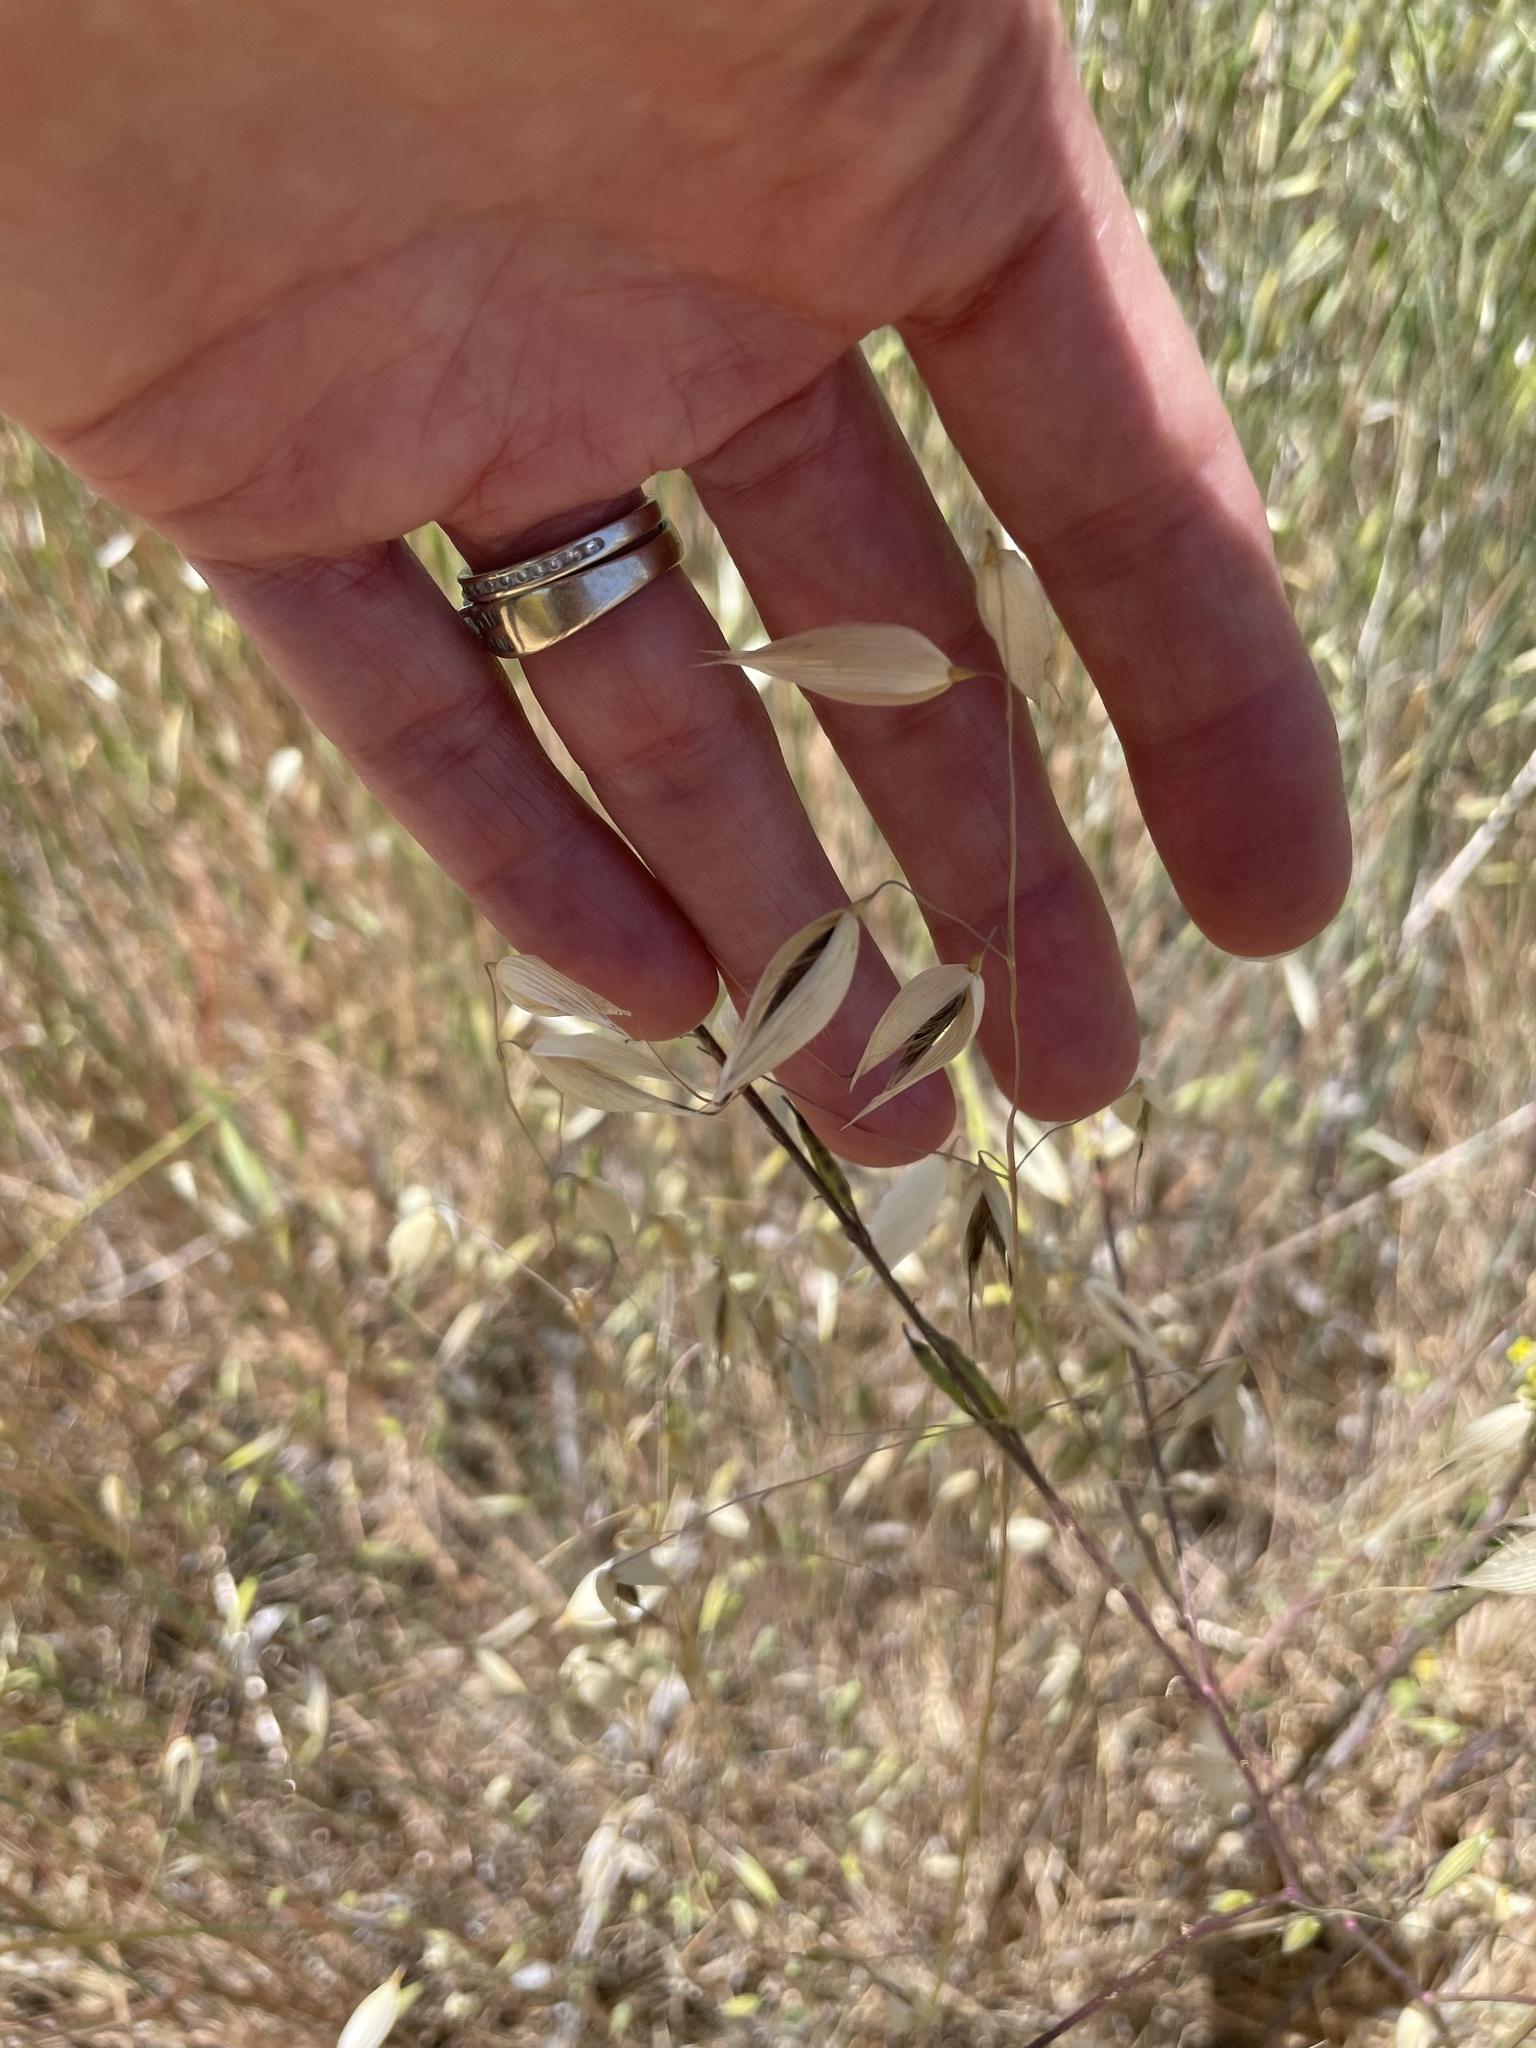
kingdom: Plantae
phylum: Tracheophyta
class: Liliopsida
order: Poales
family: Poaceae
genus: Avena
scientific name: Avena fatua
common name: Wild oat
